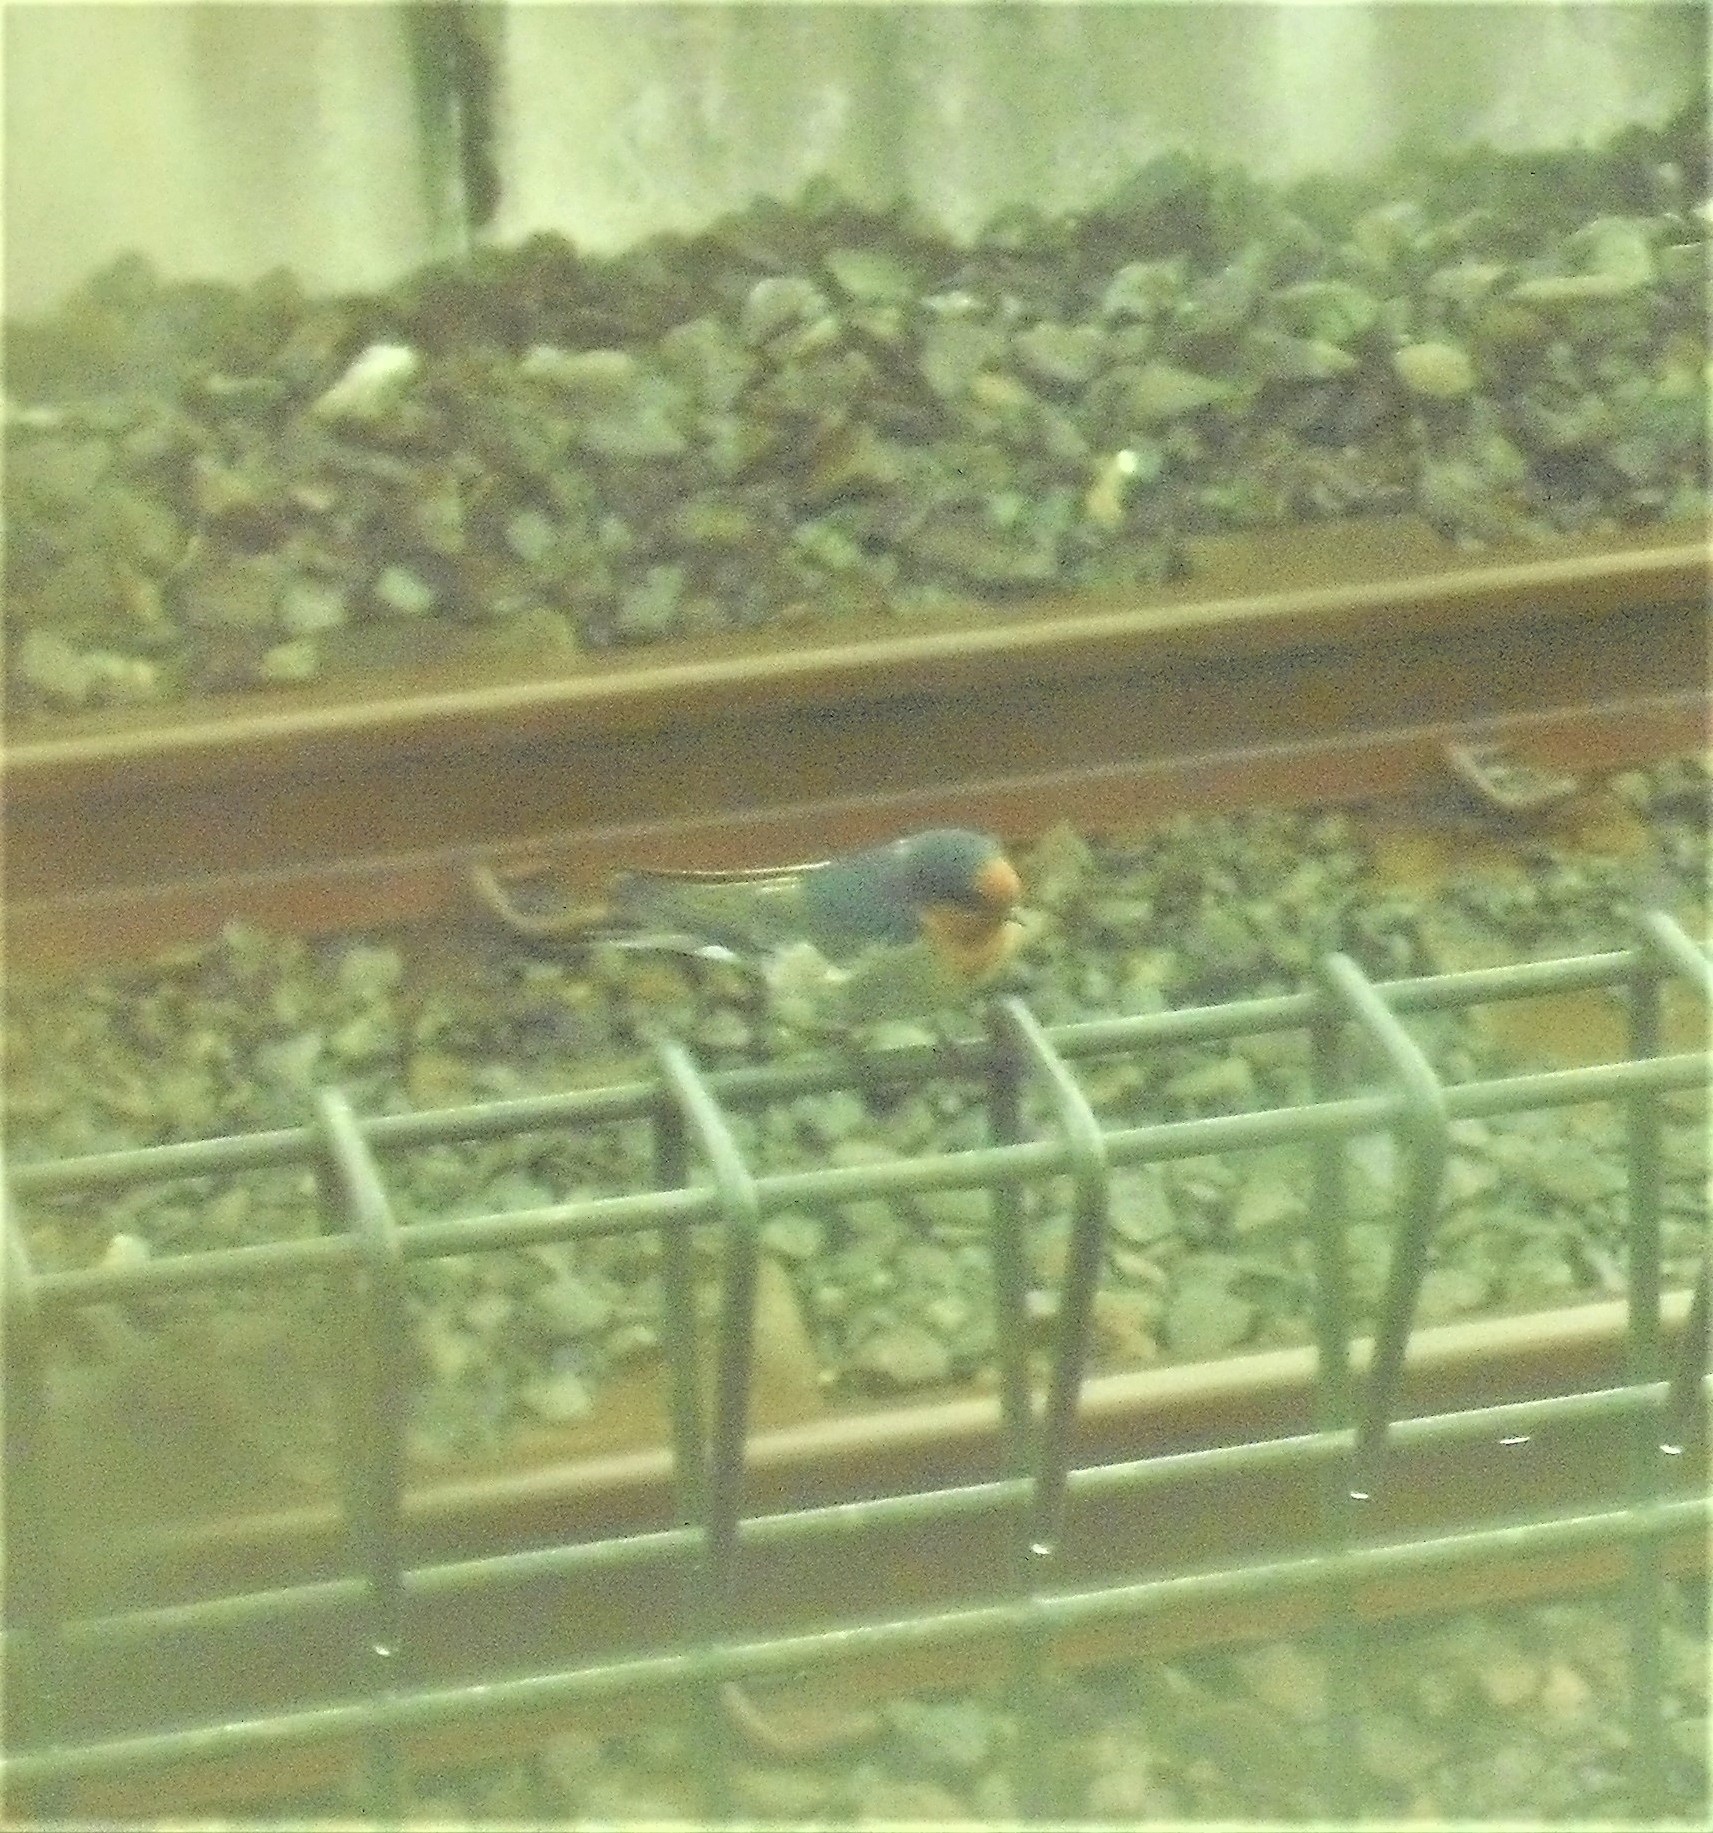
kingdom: Animalia
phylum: Chordata
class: Aves
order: Passeriformes
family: Hirundinidae
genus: Hirundo
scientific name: Hirundo neoxena
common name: Welcome swallow
